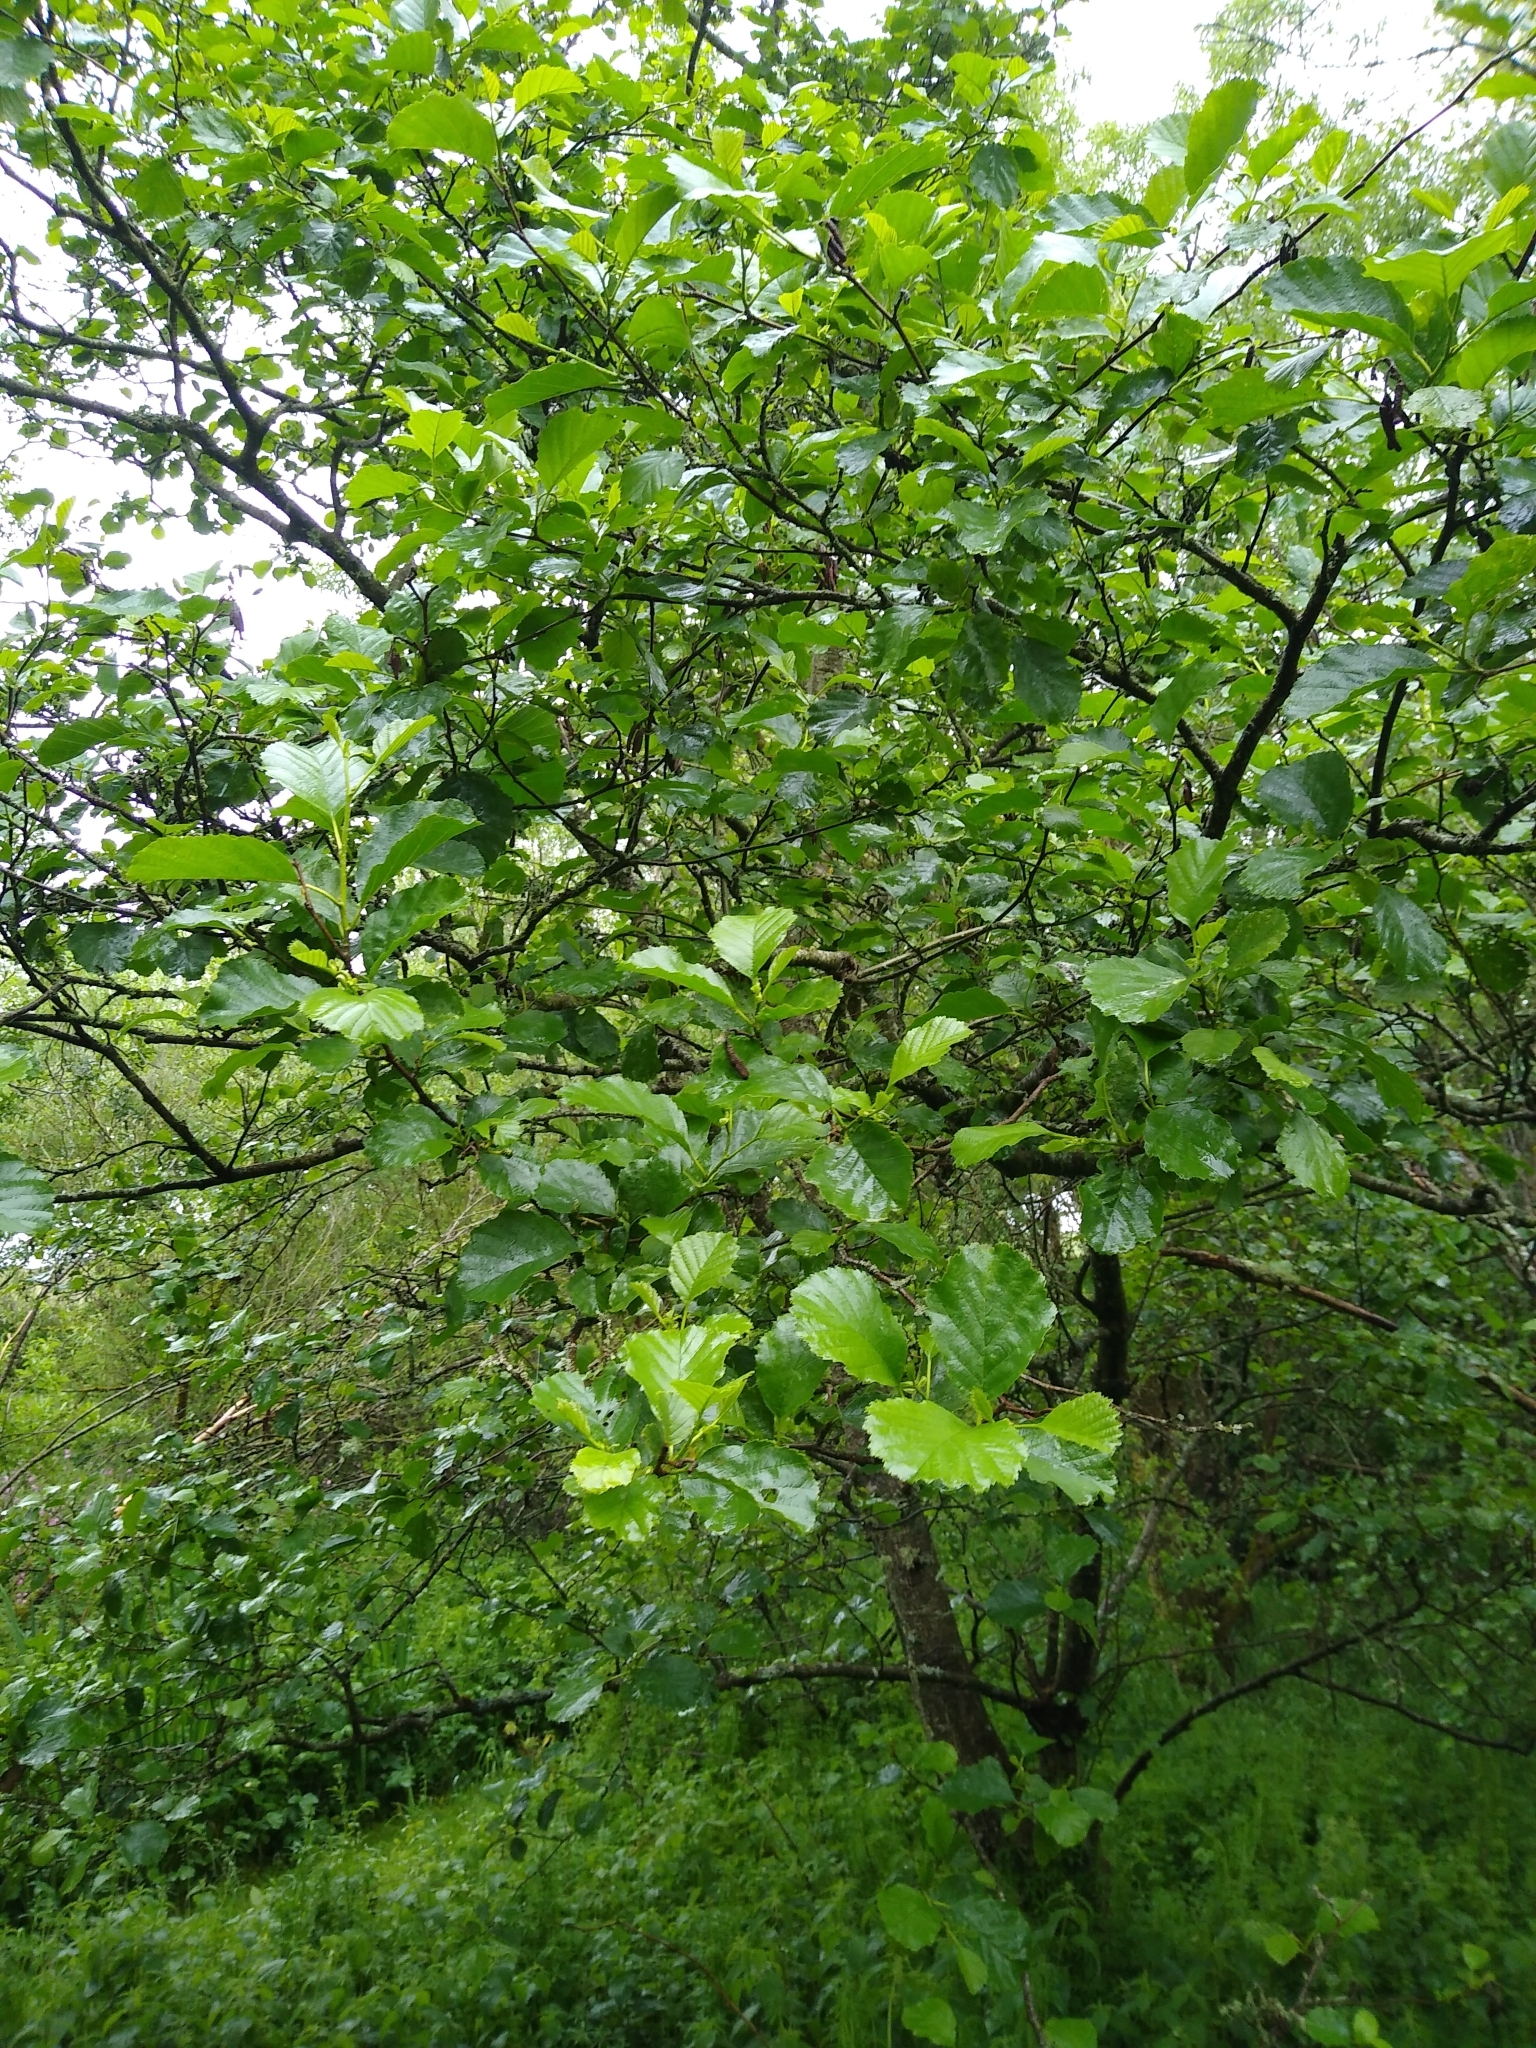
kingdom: Plantae
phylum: Tracheophyta
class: Magnoliopsida
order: Fagales
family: Betulaceae
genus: Alnus
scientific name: Alnus glutinosa
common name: Black alder
